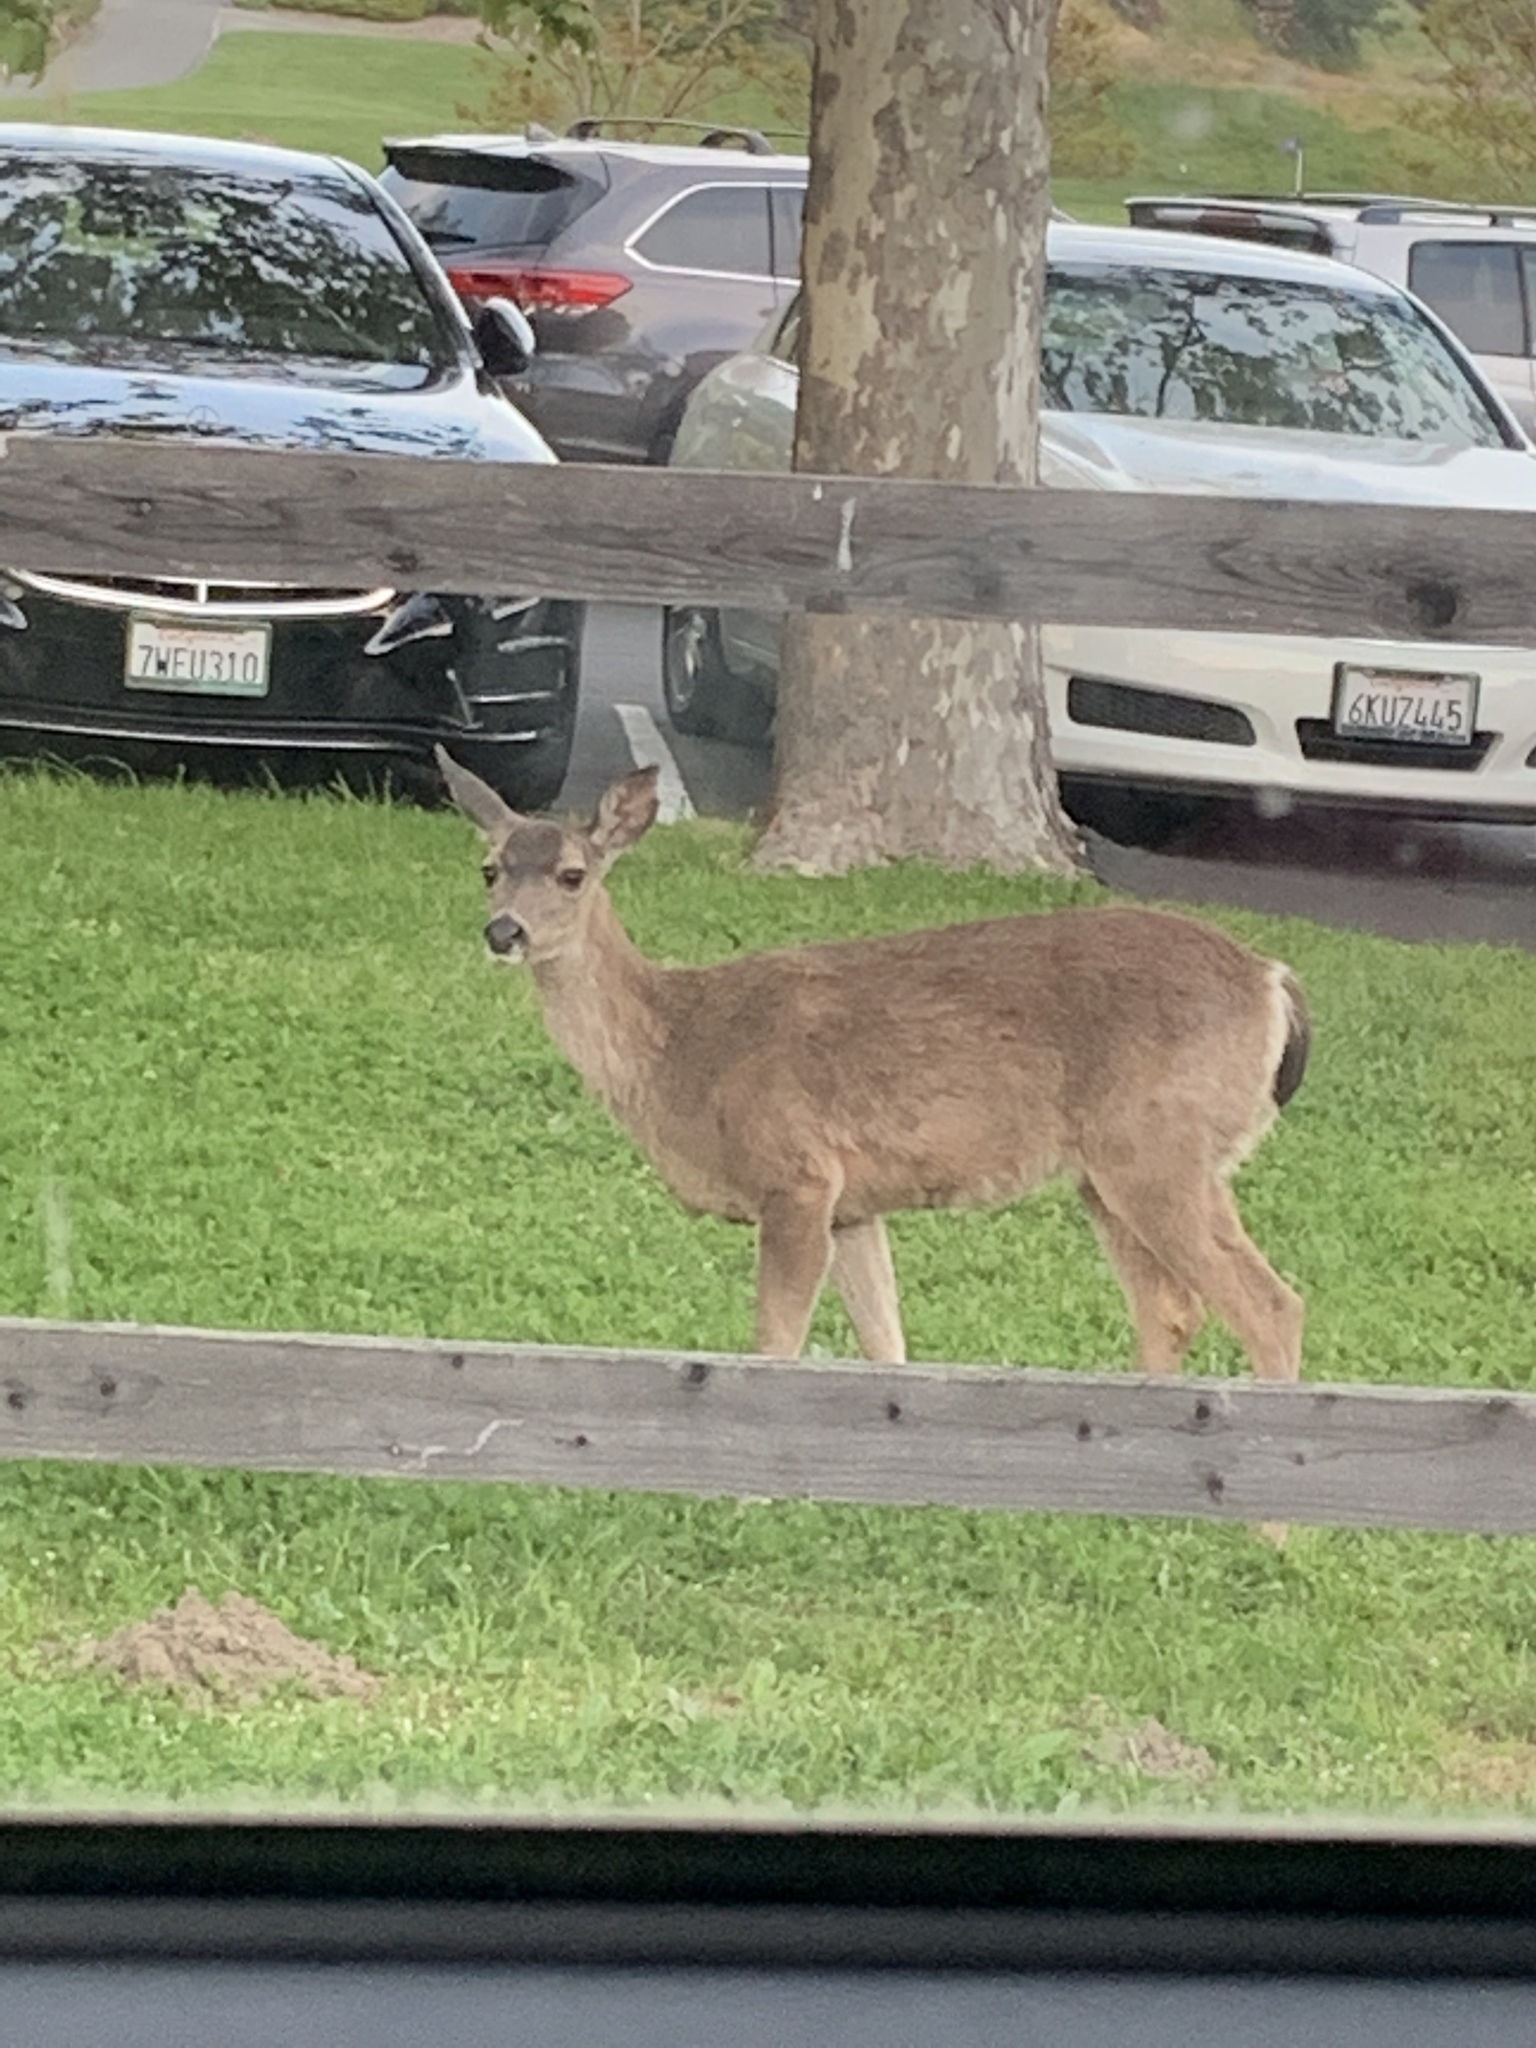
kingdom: Animalia
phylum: Chordata
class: Mammalia
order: Artiodactyla
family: Cervidae
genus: Odocoileus
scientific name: Odocoileus hemionus
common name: Mule deer
